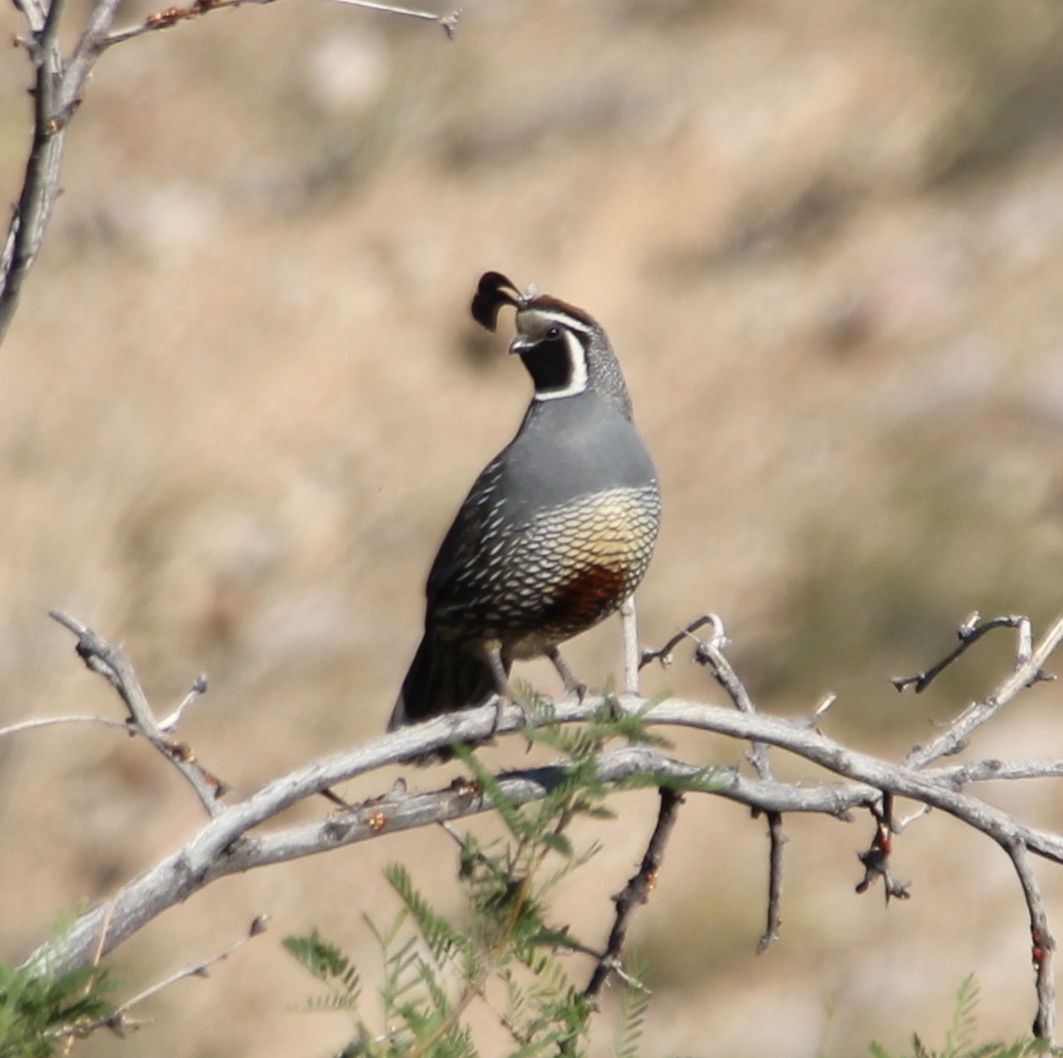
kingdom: Animalia
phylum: Chordata
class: Aves
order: Galliformes
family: Odontophoridae
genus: Callipepla
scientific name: Callipepla californica
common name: California quail
